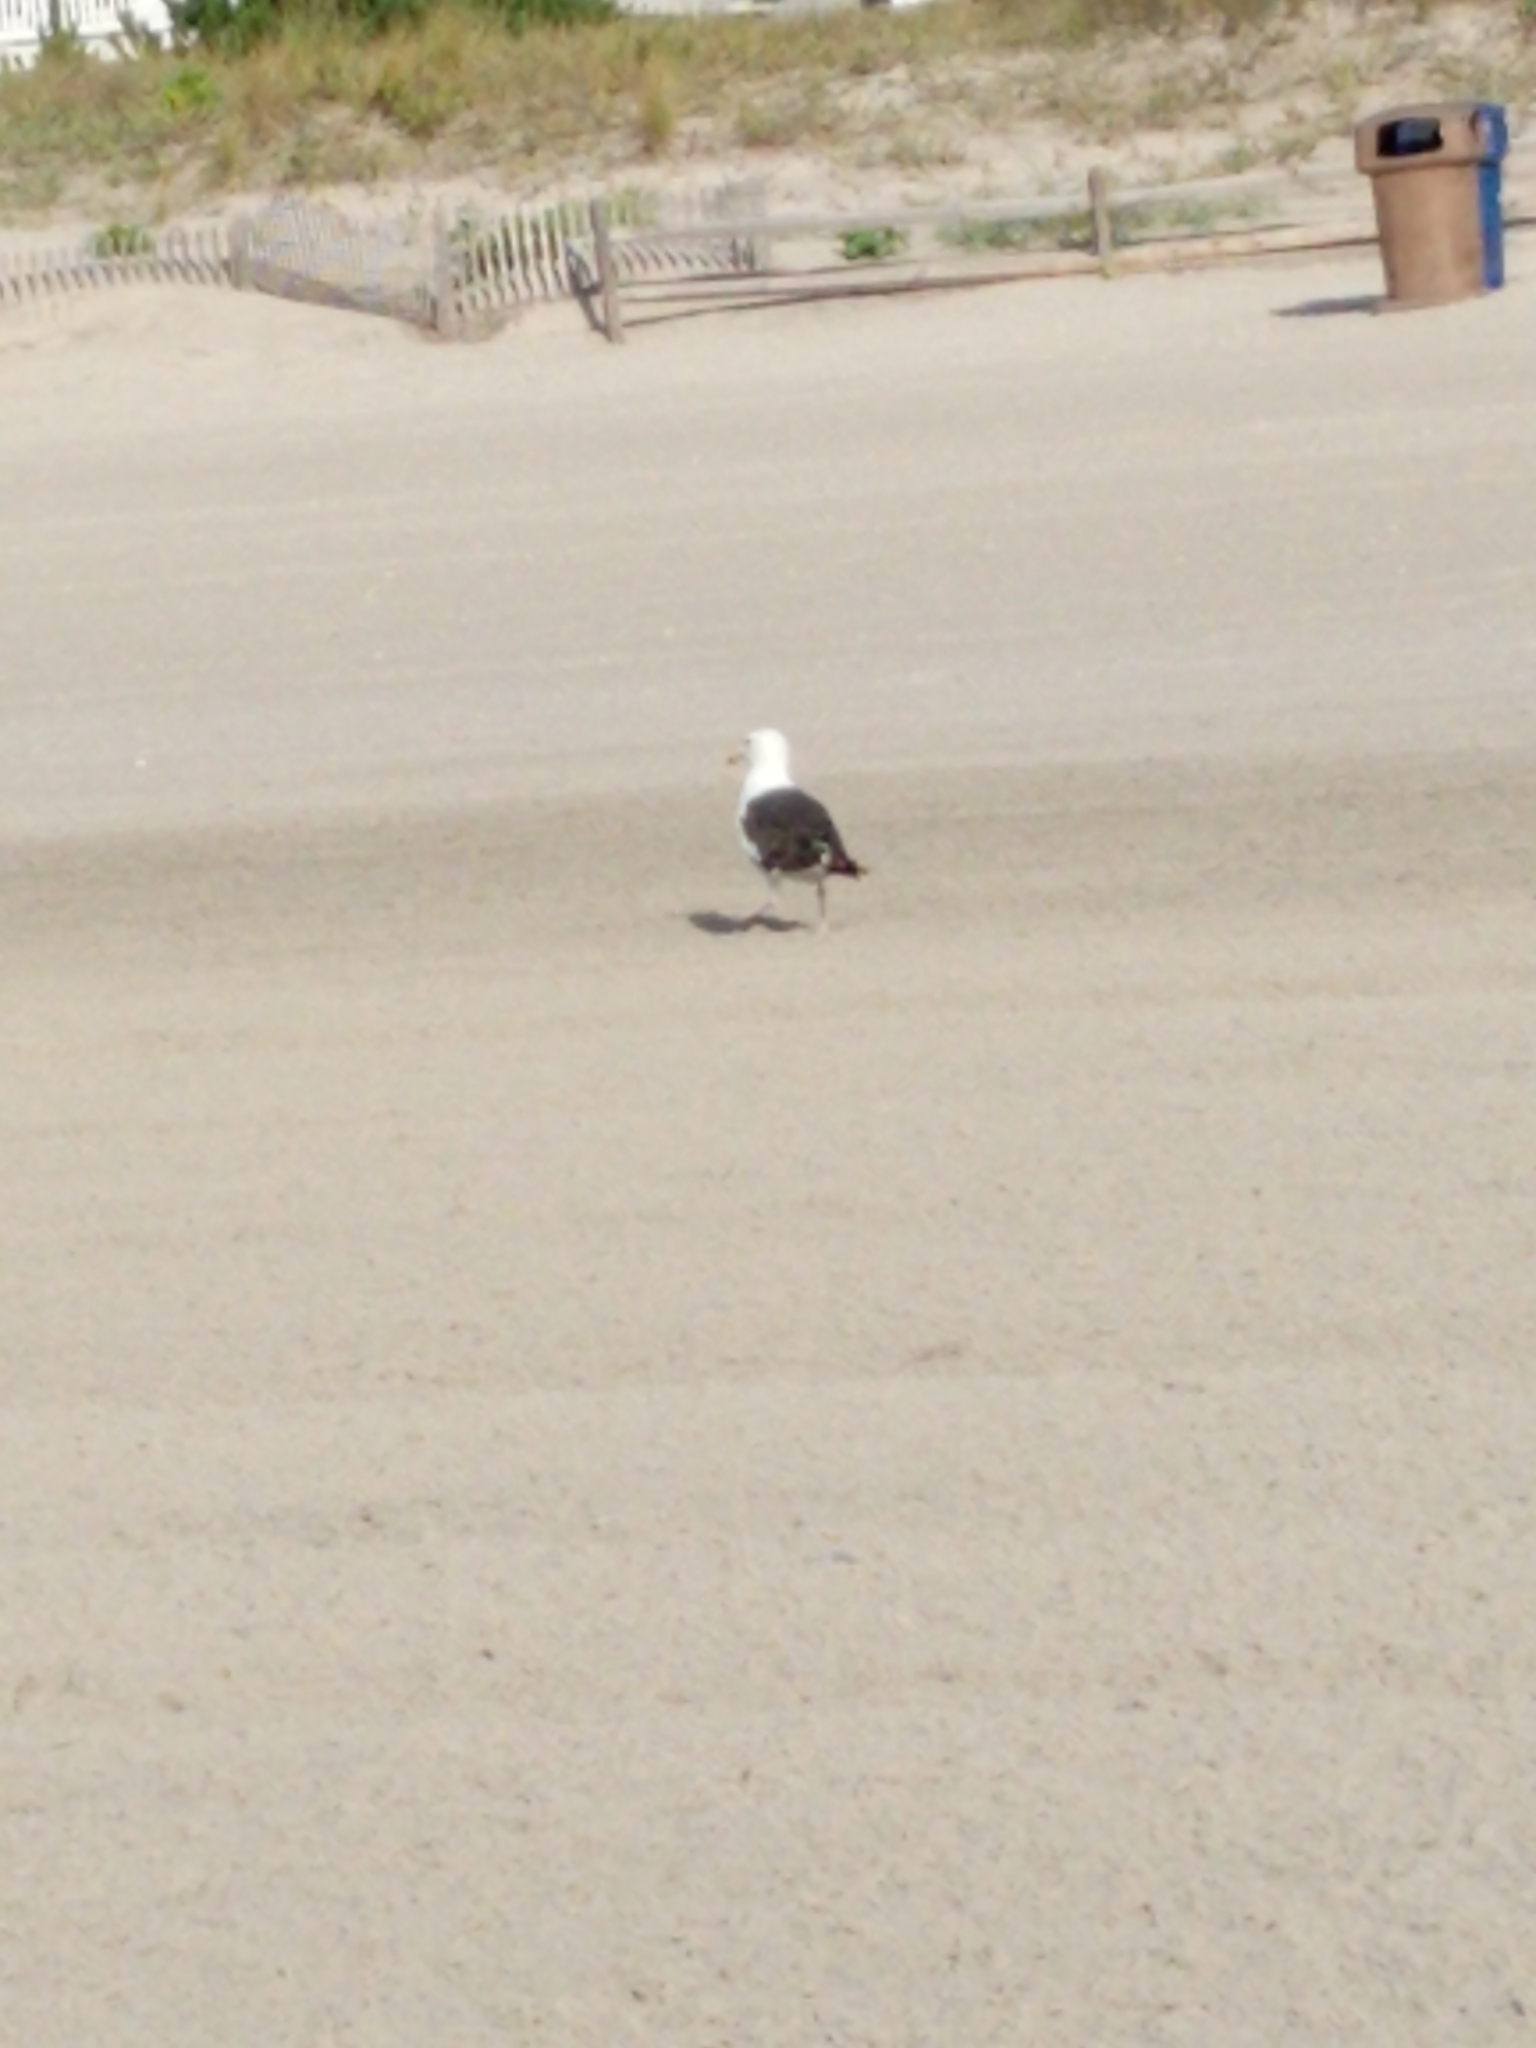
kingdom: Animalia
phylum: Chordata
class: Aves
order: Charadriiformes
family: Laridae
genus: Larus
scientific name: Larus marinus
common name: Great black-backed gull
